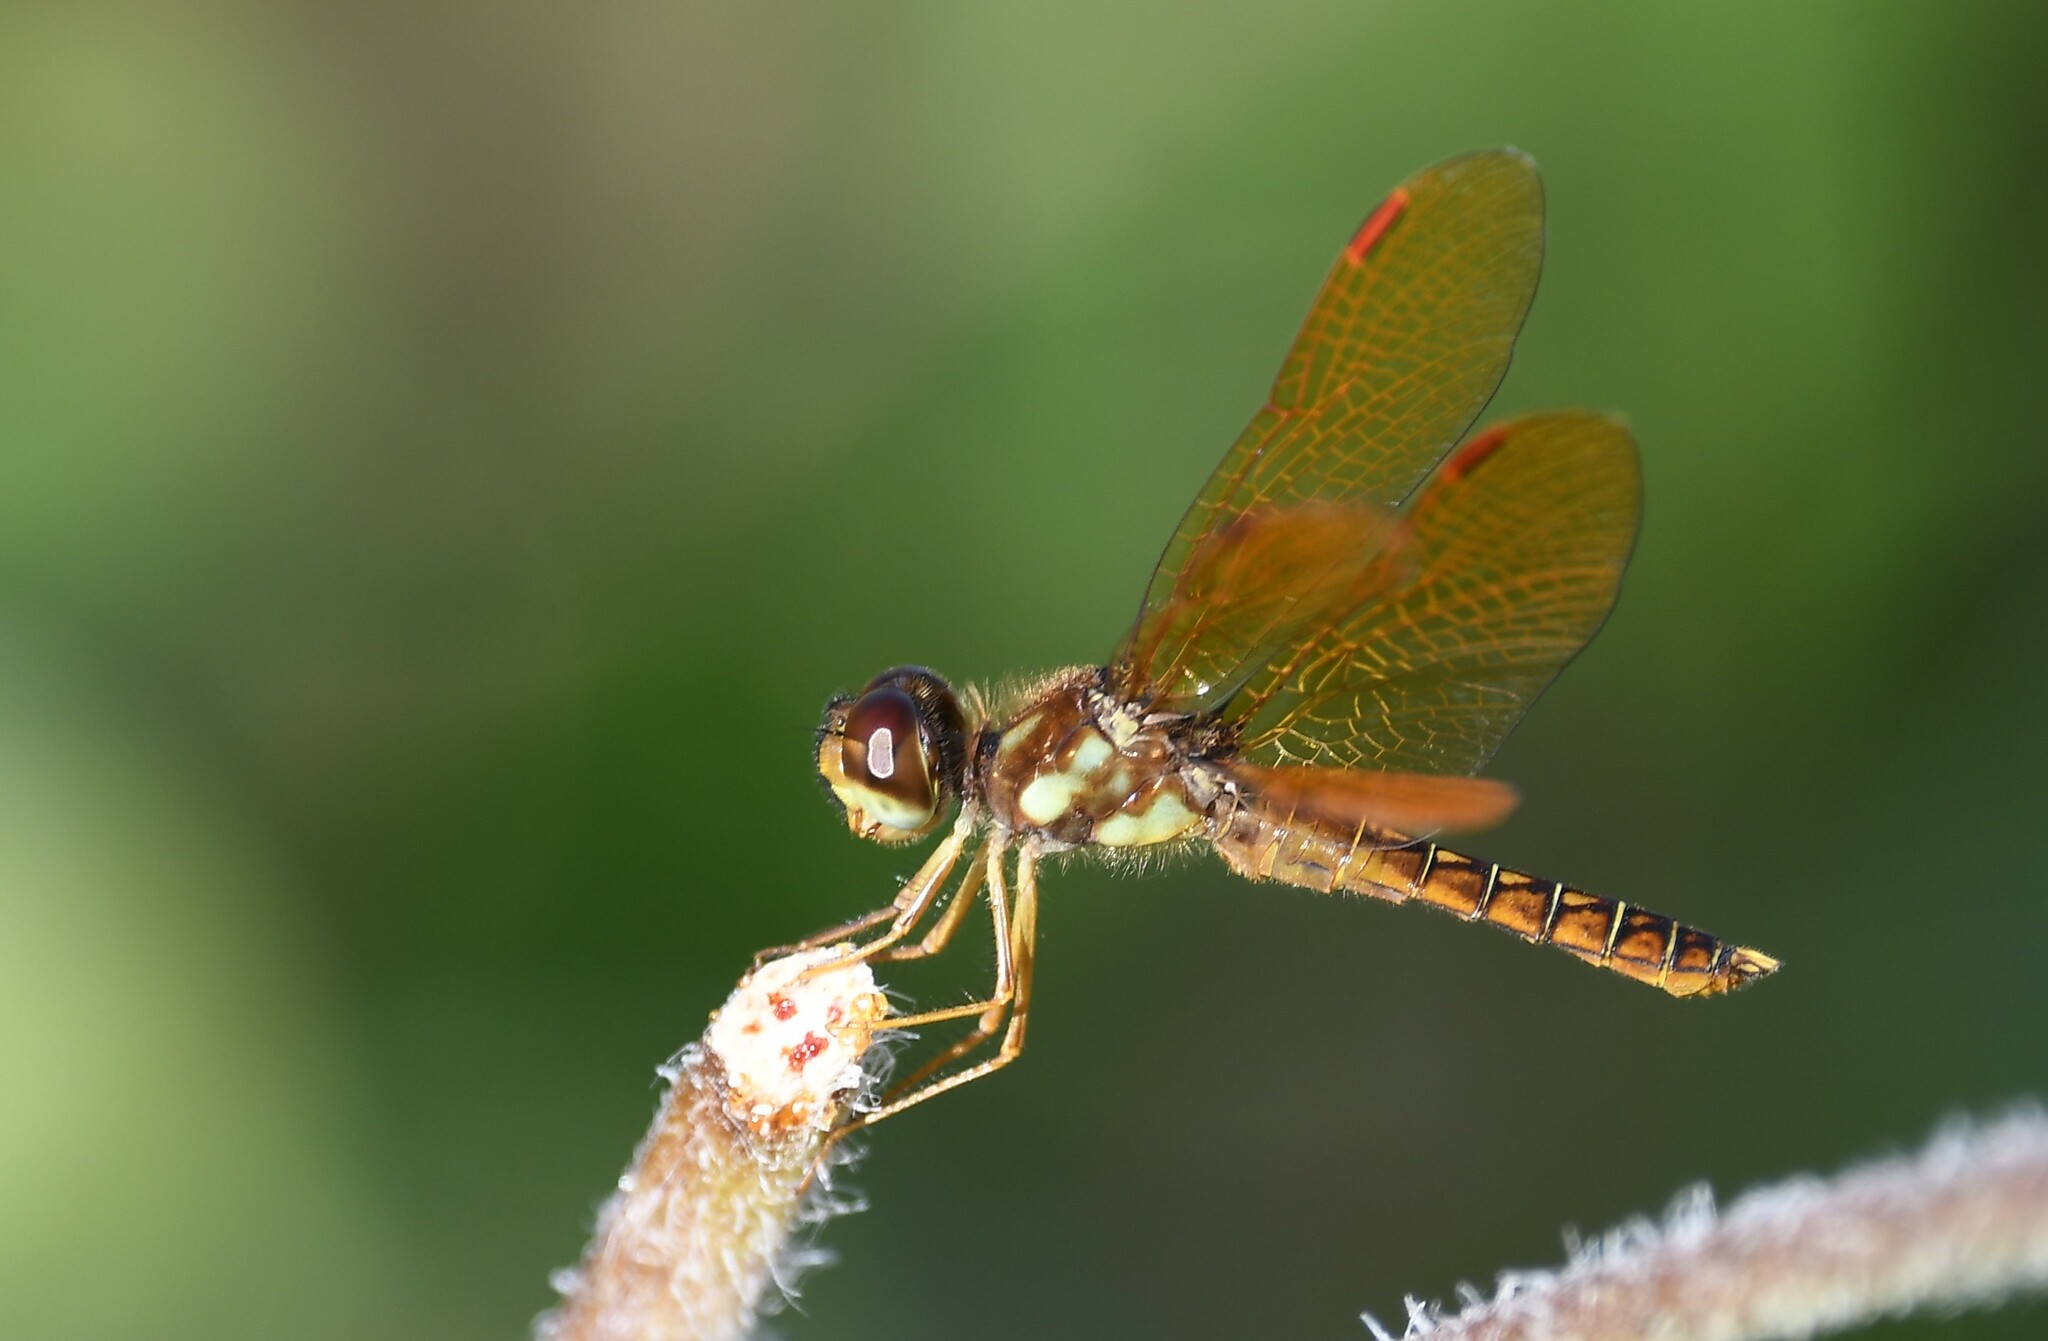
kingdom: Animalia
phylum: Arthropoda
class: Insecta
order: Odonata
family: Libellulidae
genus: Perithemis
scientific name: Perithemis tenera
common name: Eastern amberwing
